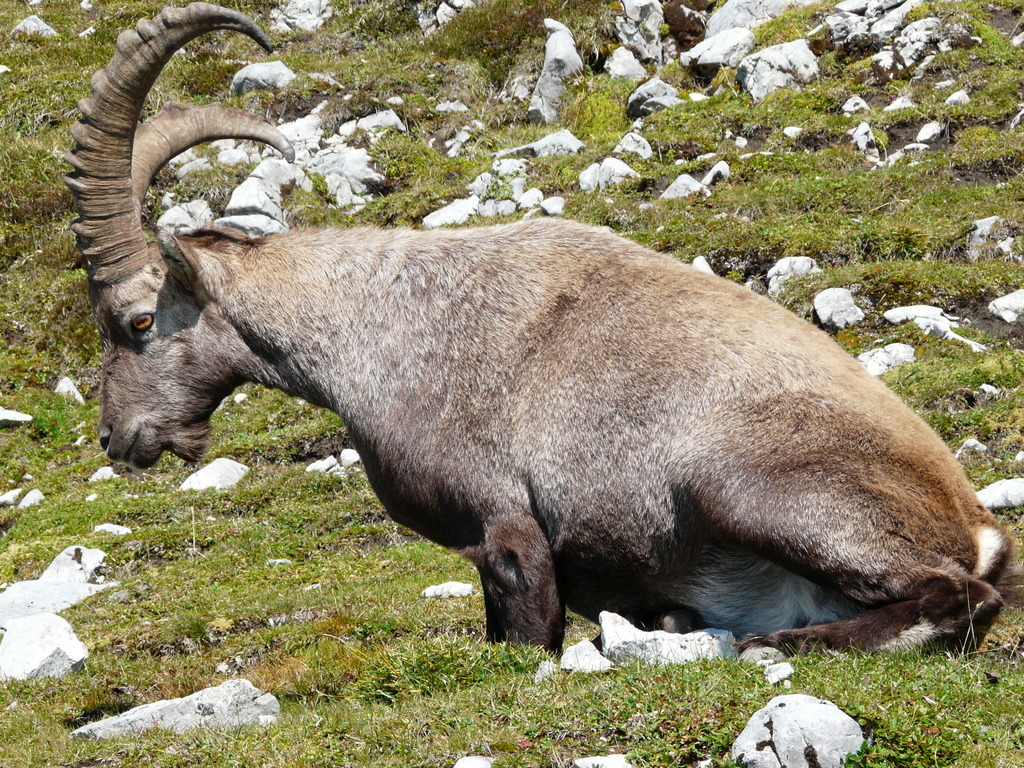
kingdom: Animalia
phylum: Chordata
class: Mammalia
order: Artiodactyla
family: Bovidae
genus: Capra
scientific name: Capra ibex
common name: Alpine ibex
